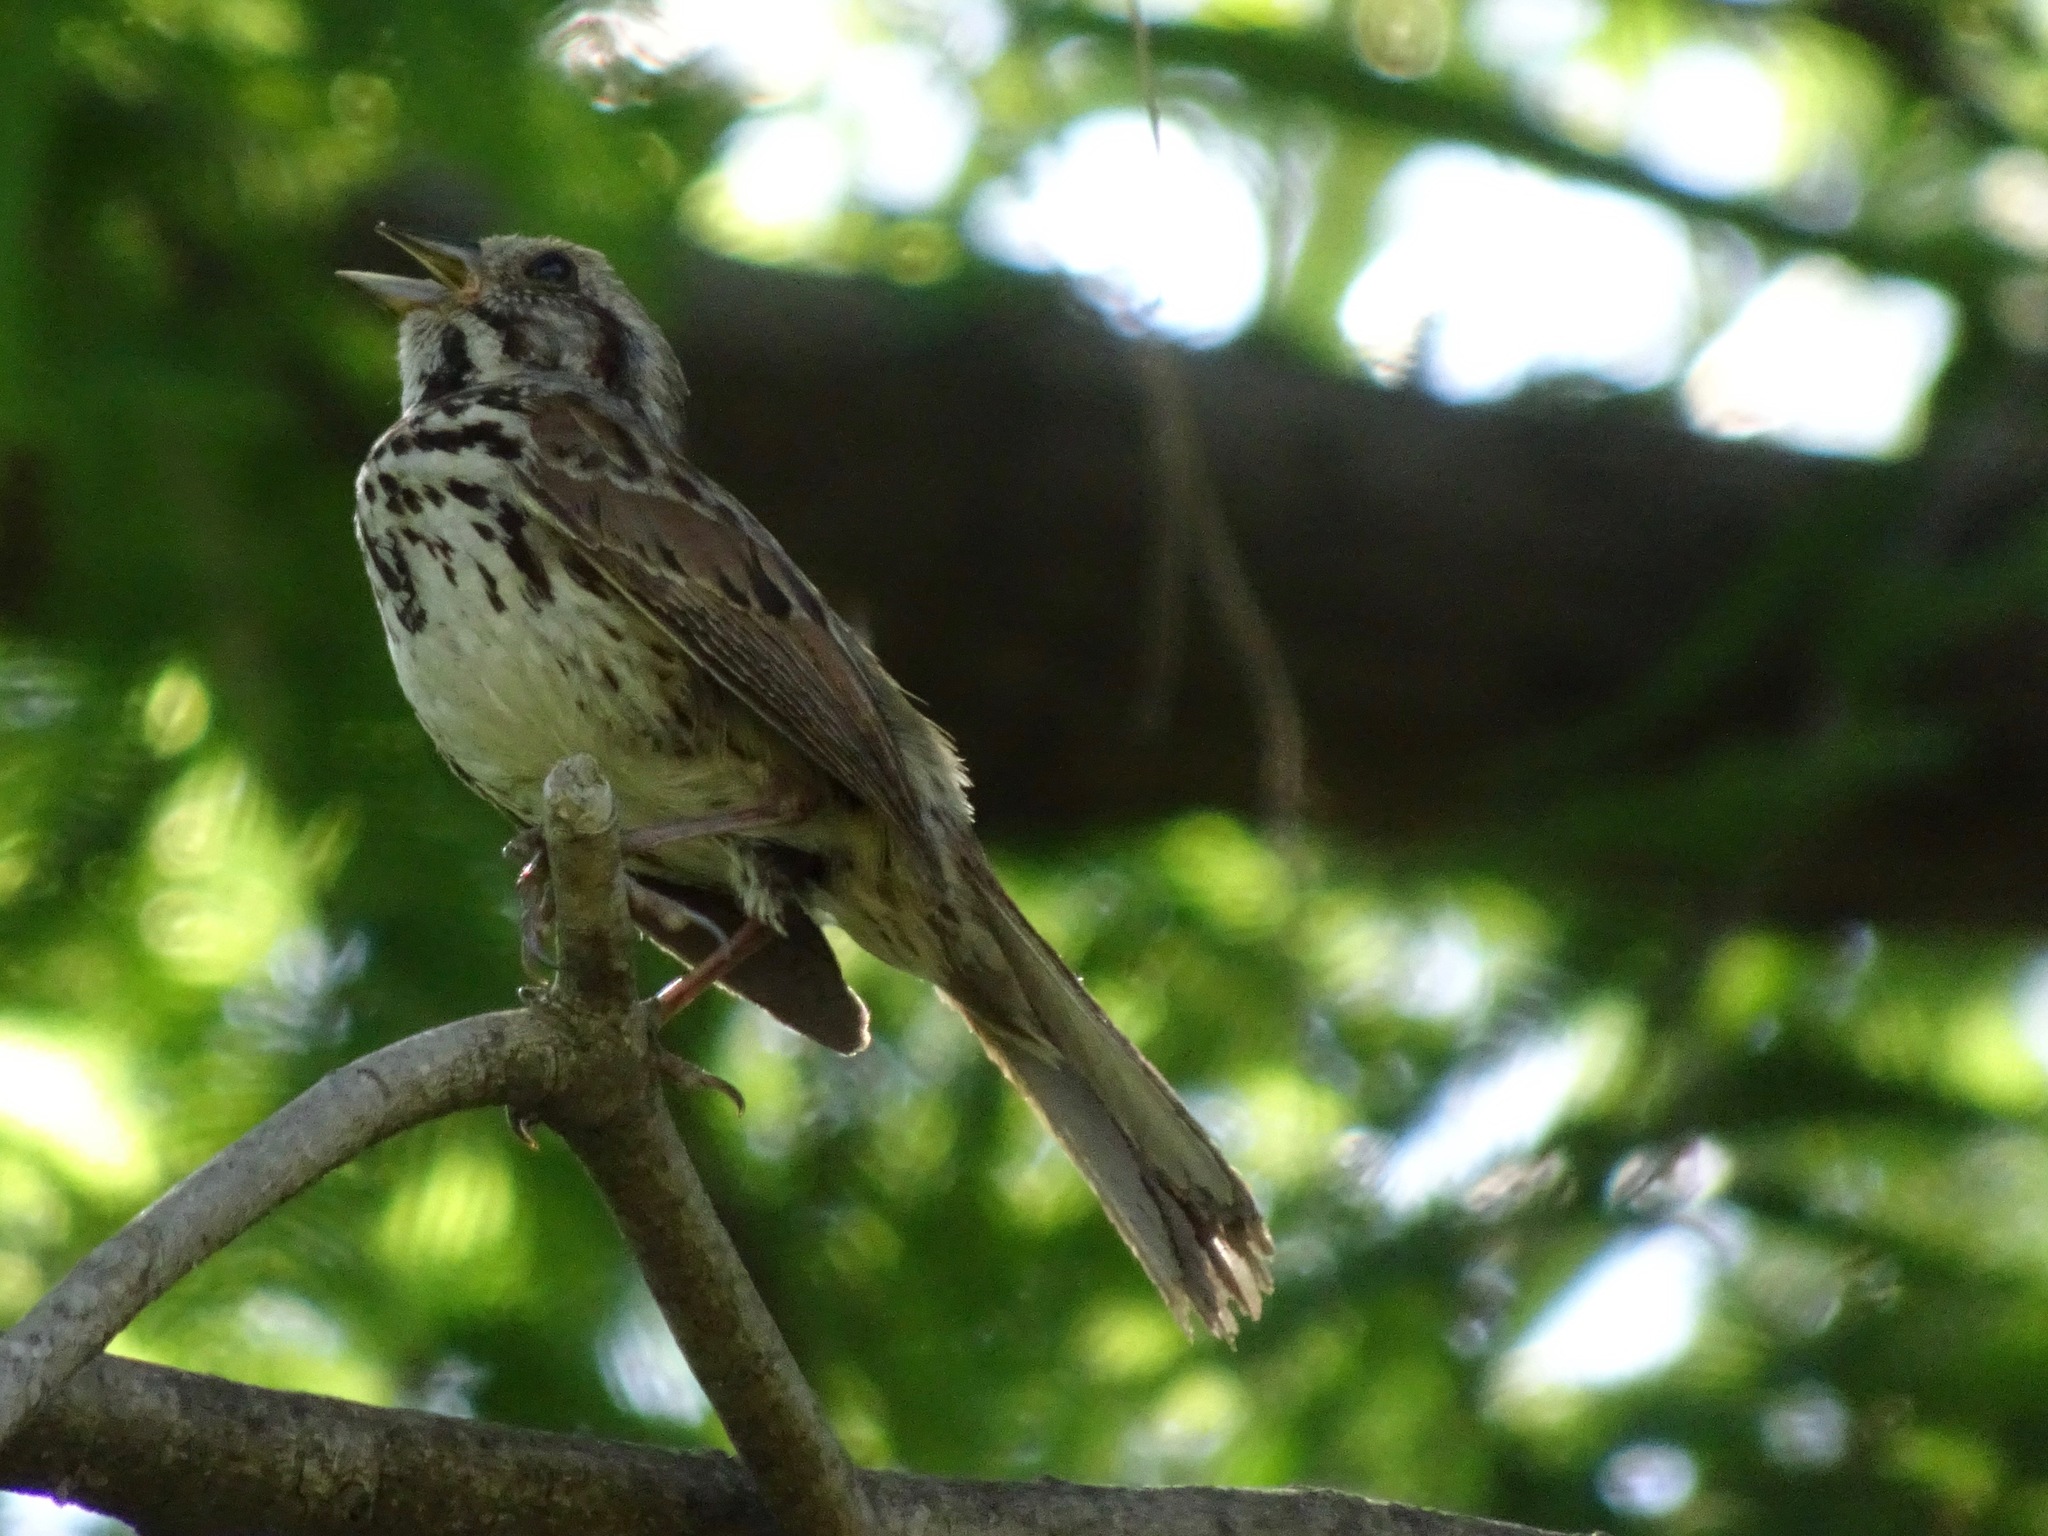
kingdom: Animalia
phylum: Chordata
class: Aves
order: Passeriformes
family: Passerellidae
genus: Melospiza
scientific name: Melospiza melodia
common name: Song sparrow
